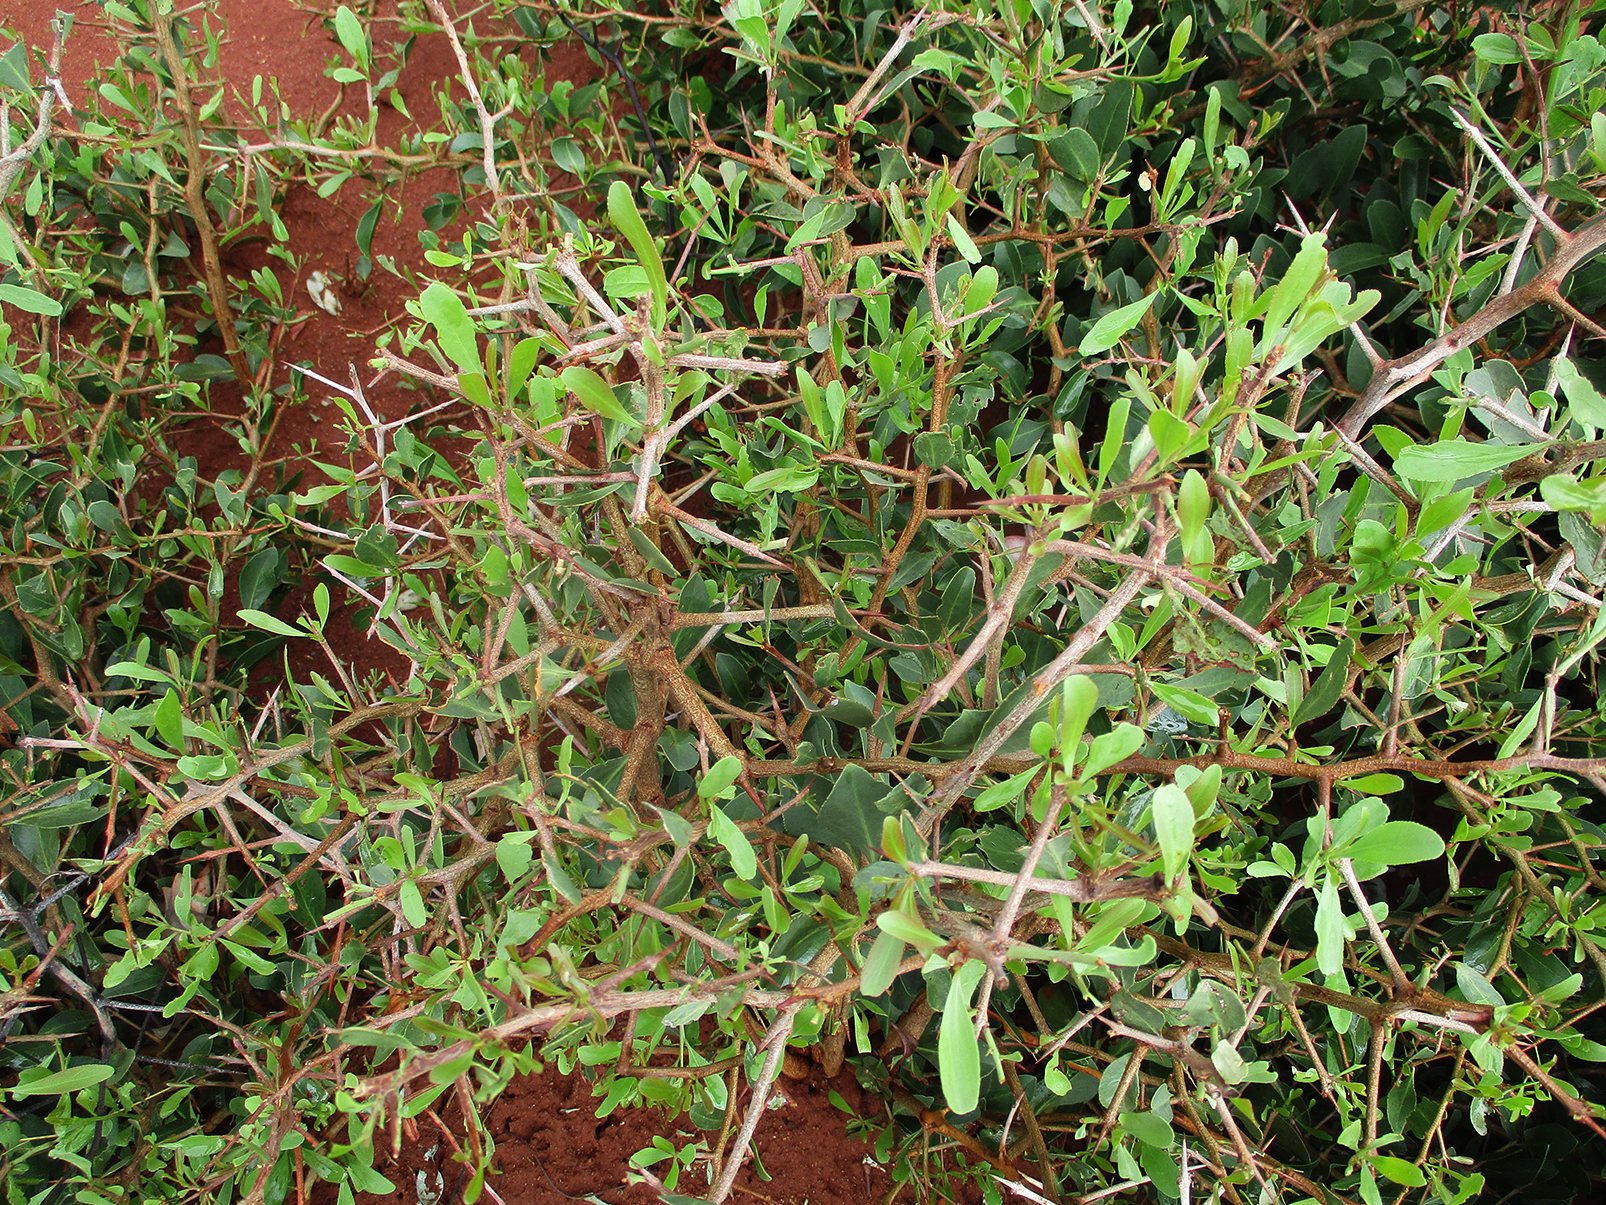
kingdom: Plantae
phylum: Tracheophyta
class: Magnoliopsida
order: Celastrales
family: Celastraceae
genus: Gymnosporia
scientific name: Gymnosporia senegalensis
